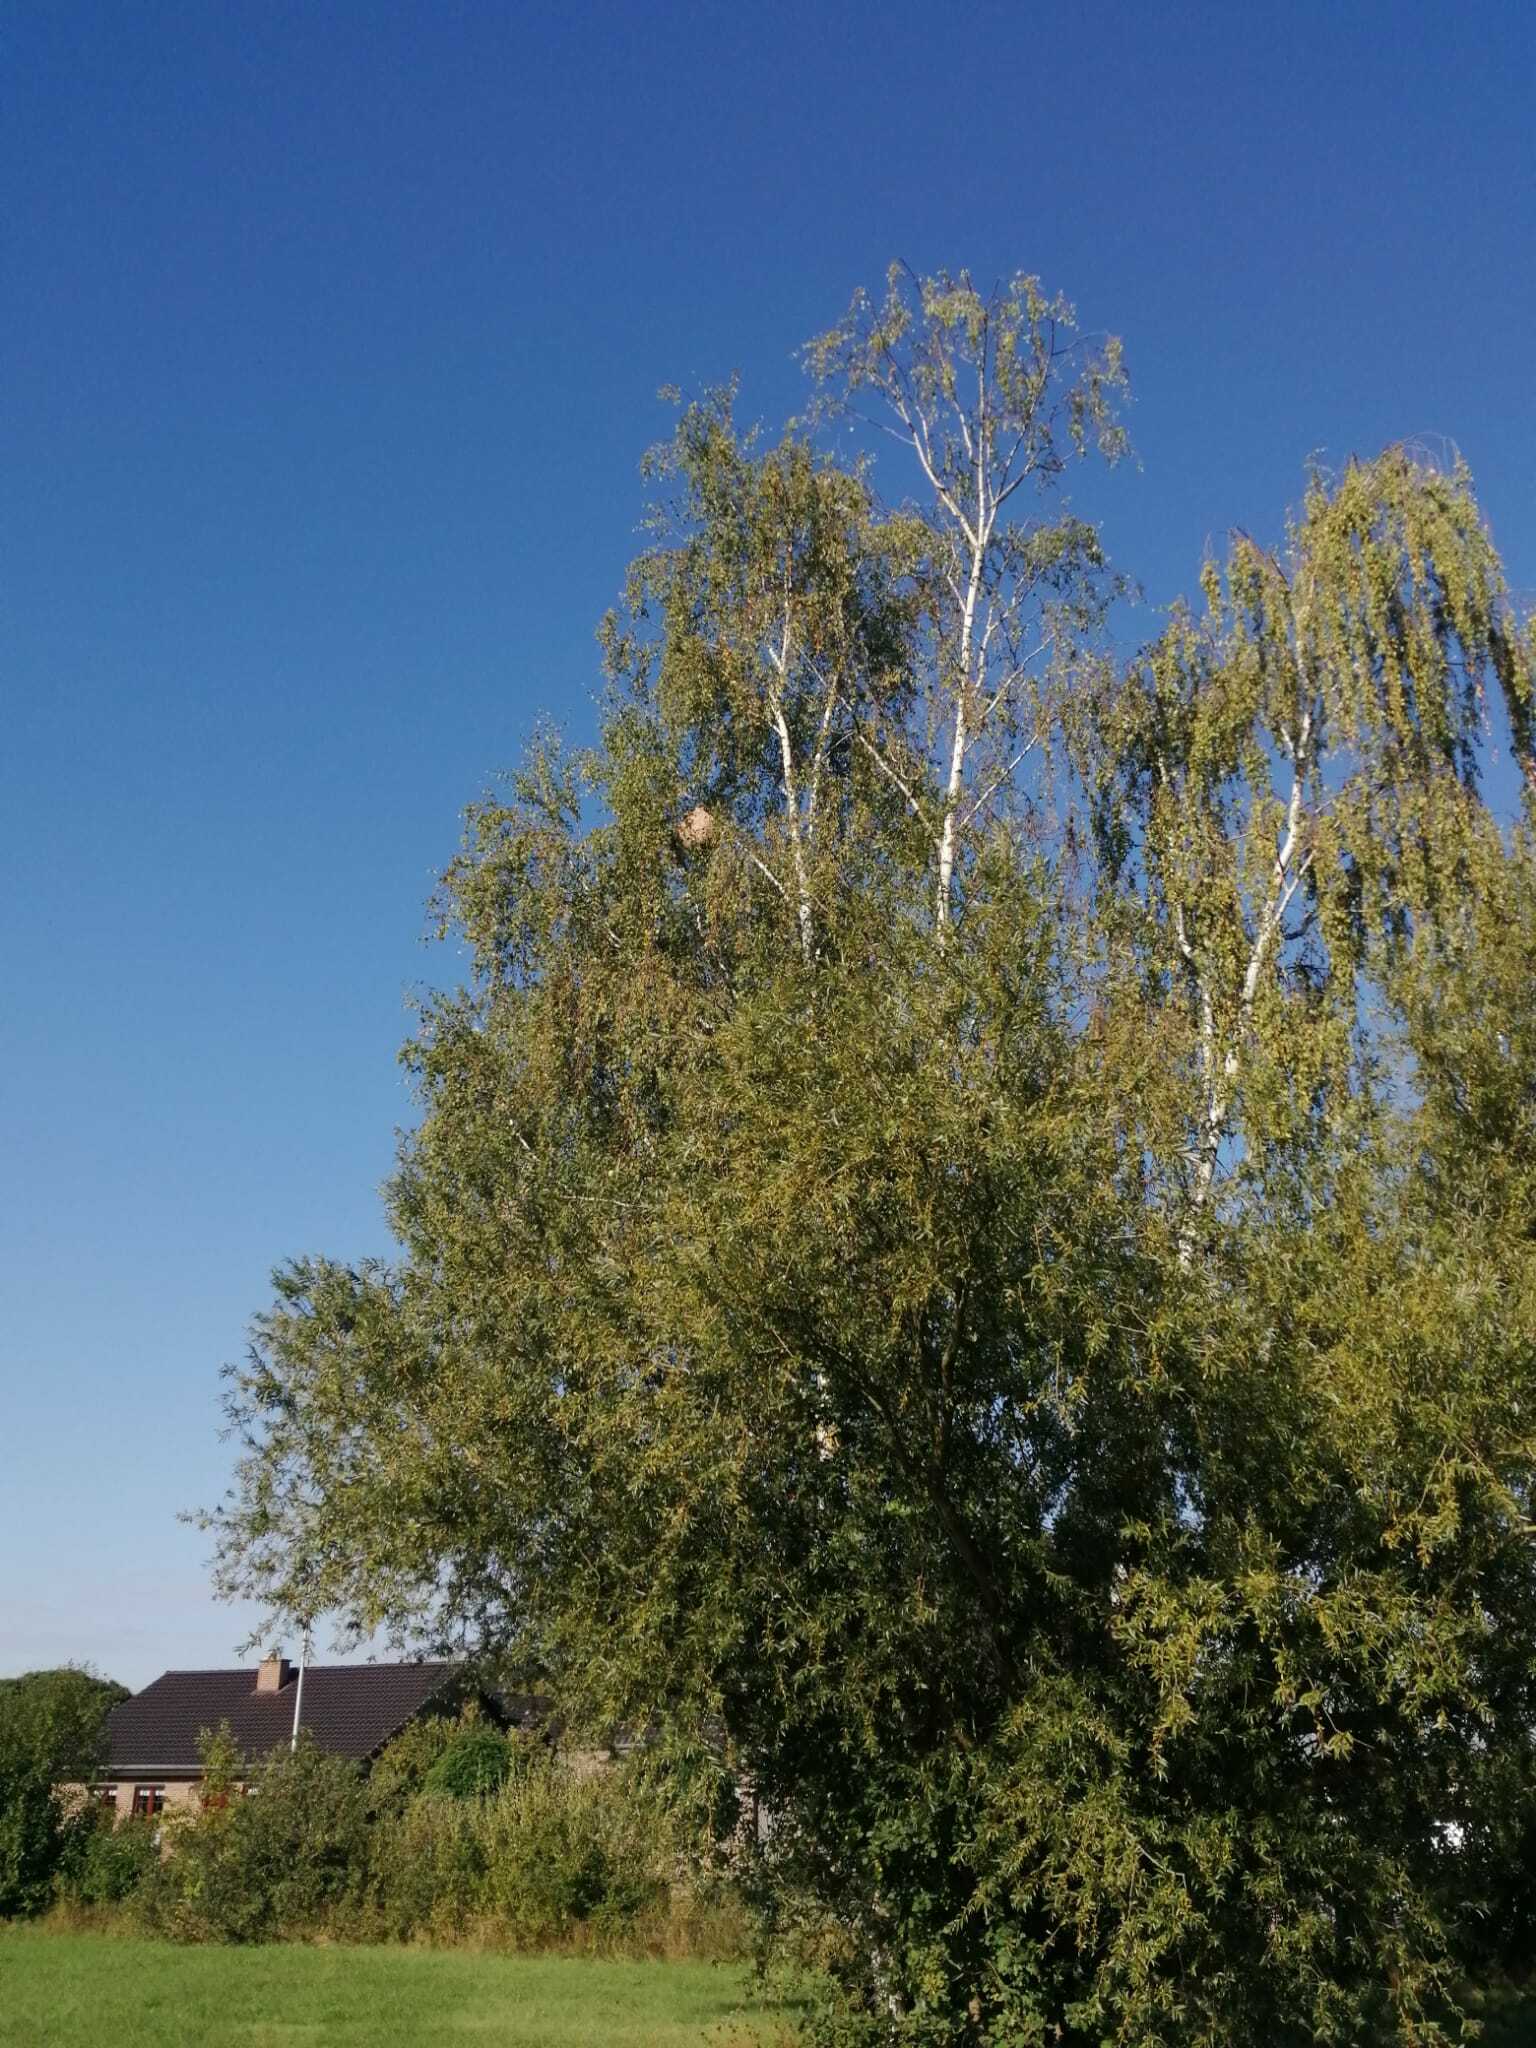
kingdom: Animalia
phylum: Arthropoda
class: Insecta
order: Hymenoptera
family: Vespidae
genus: Vespa
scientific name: Vespa velutina
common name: Asian hornet
